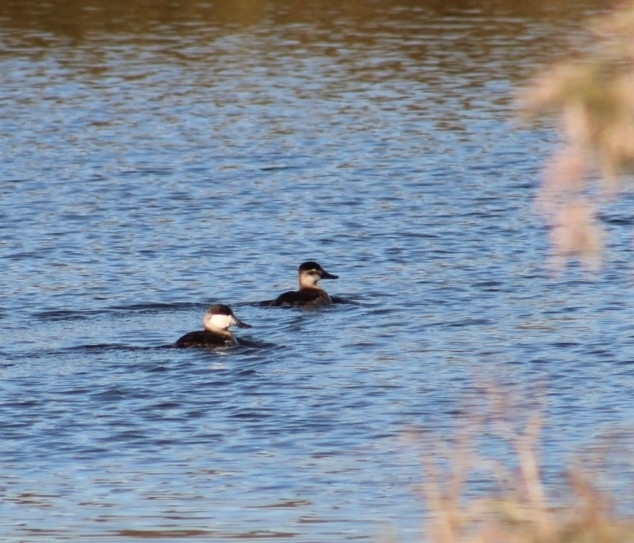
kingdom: Animalia
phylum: Chordata
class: Aves
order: Anseriformes
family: Anatidae
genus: Oxyura
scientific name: Oxyura jamaicensis
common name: Ruddy duck
